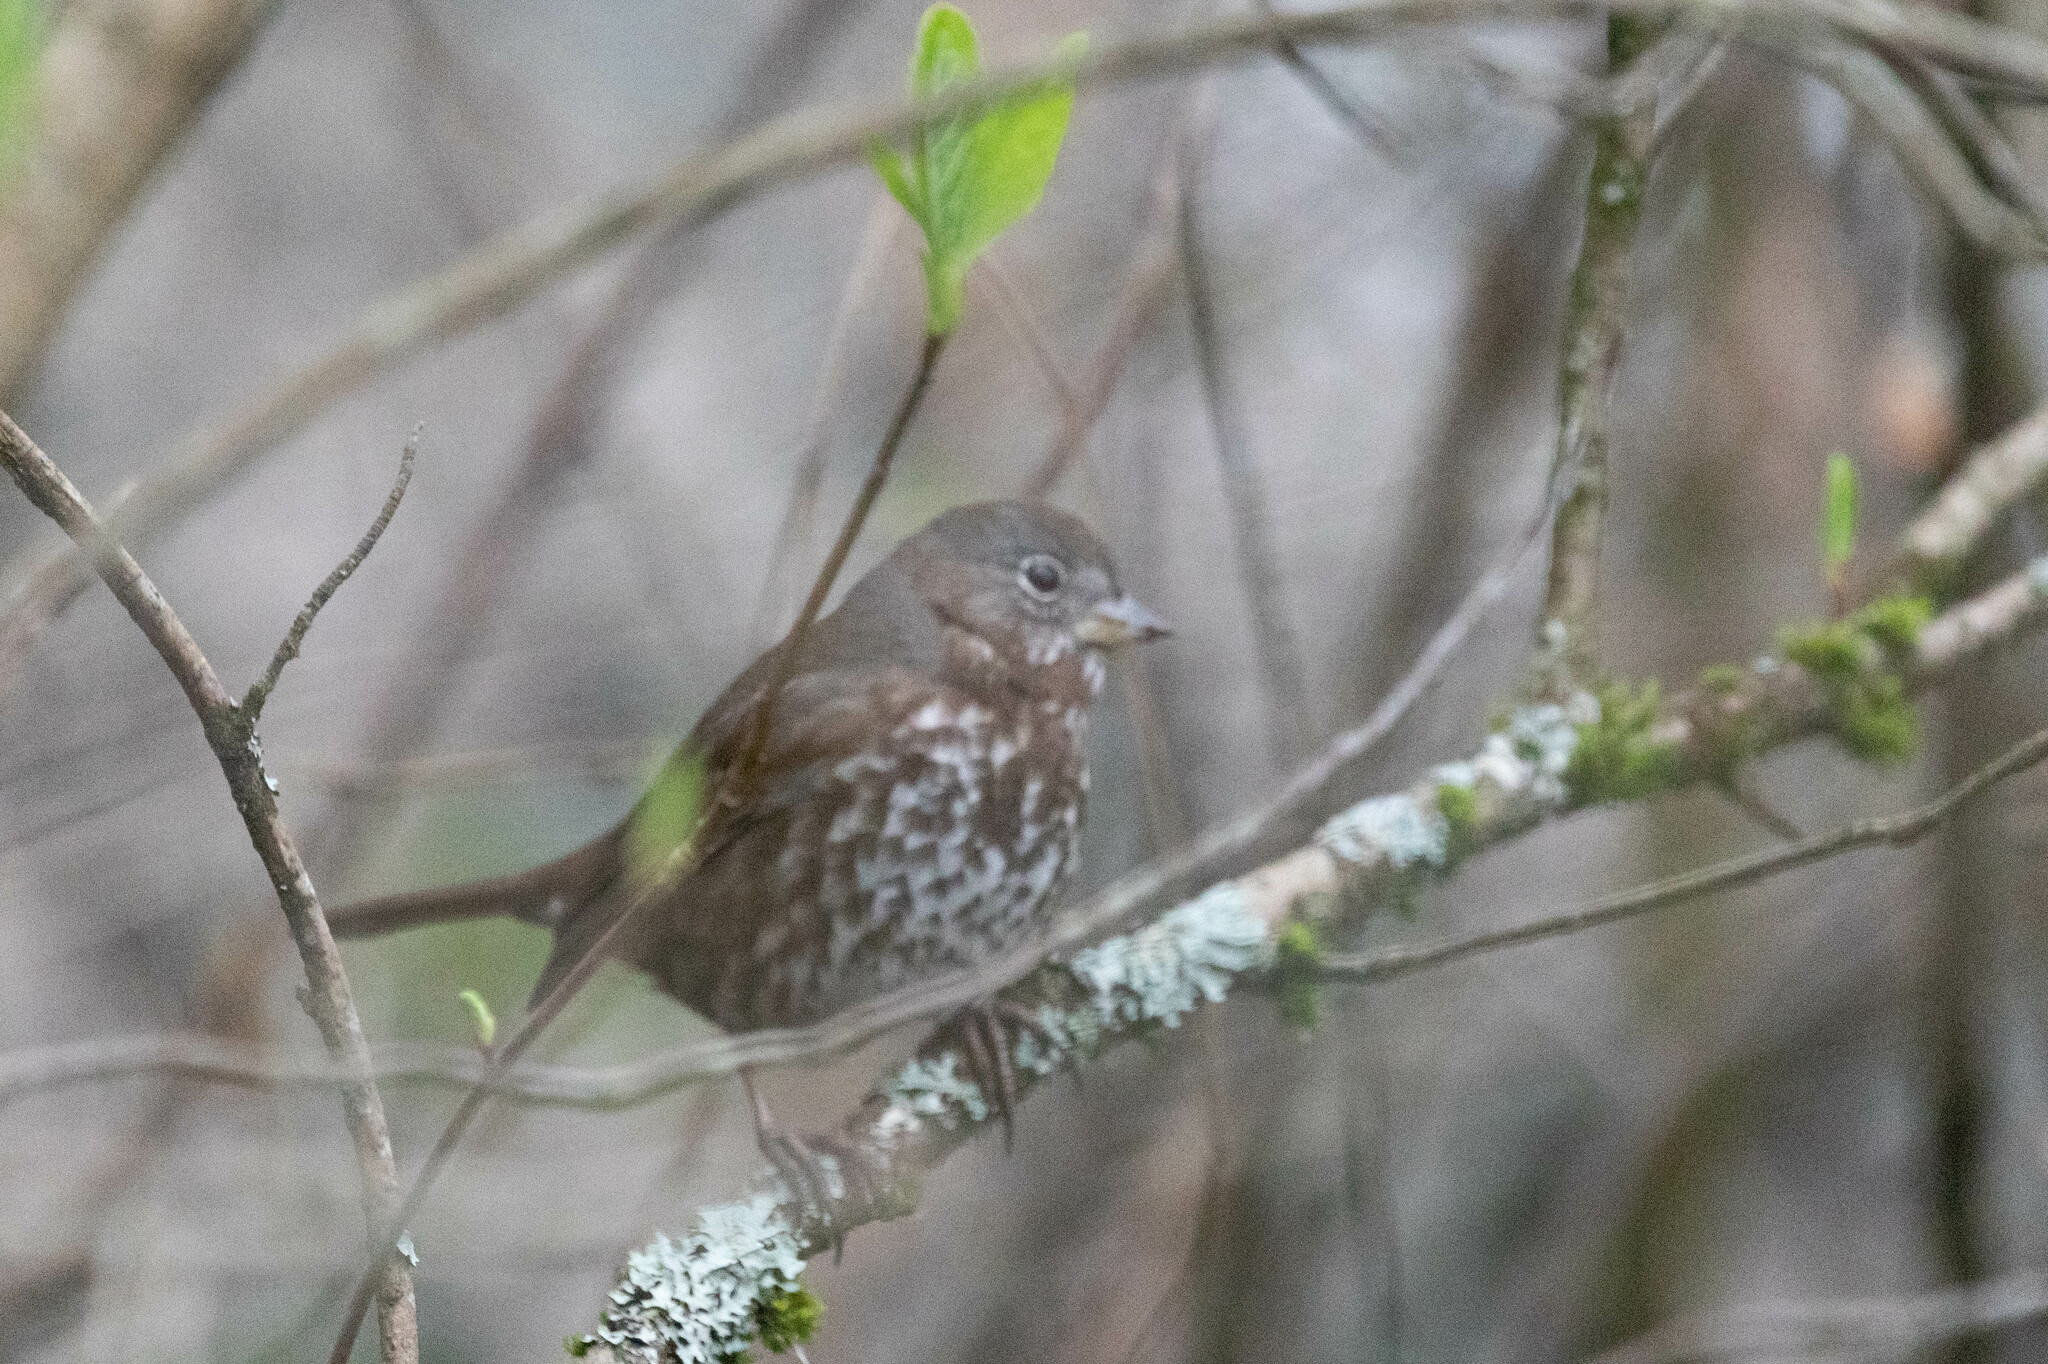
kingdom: Animalia
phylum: Chordata
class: Aves
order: Passeriformes
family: Passerellidae
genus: Passerella
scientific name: Passerella iliaca
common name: Fox sparrow
